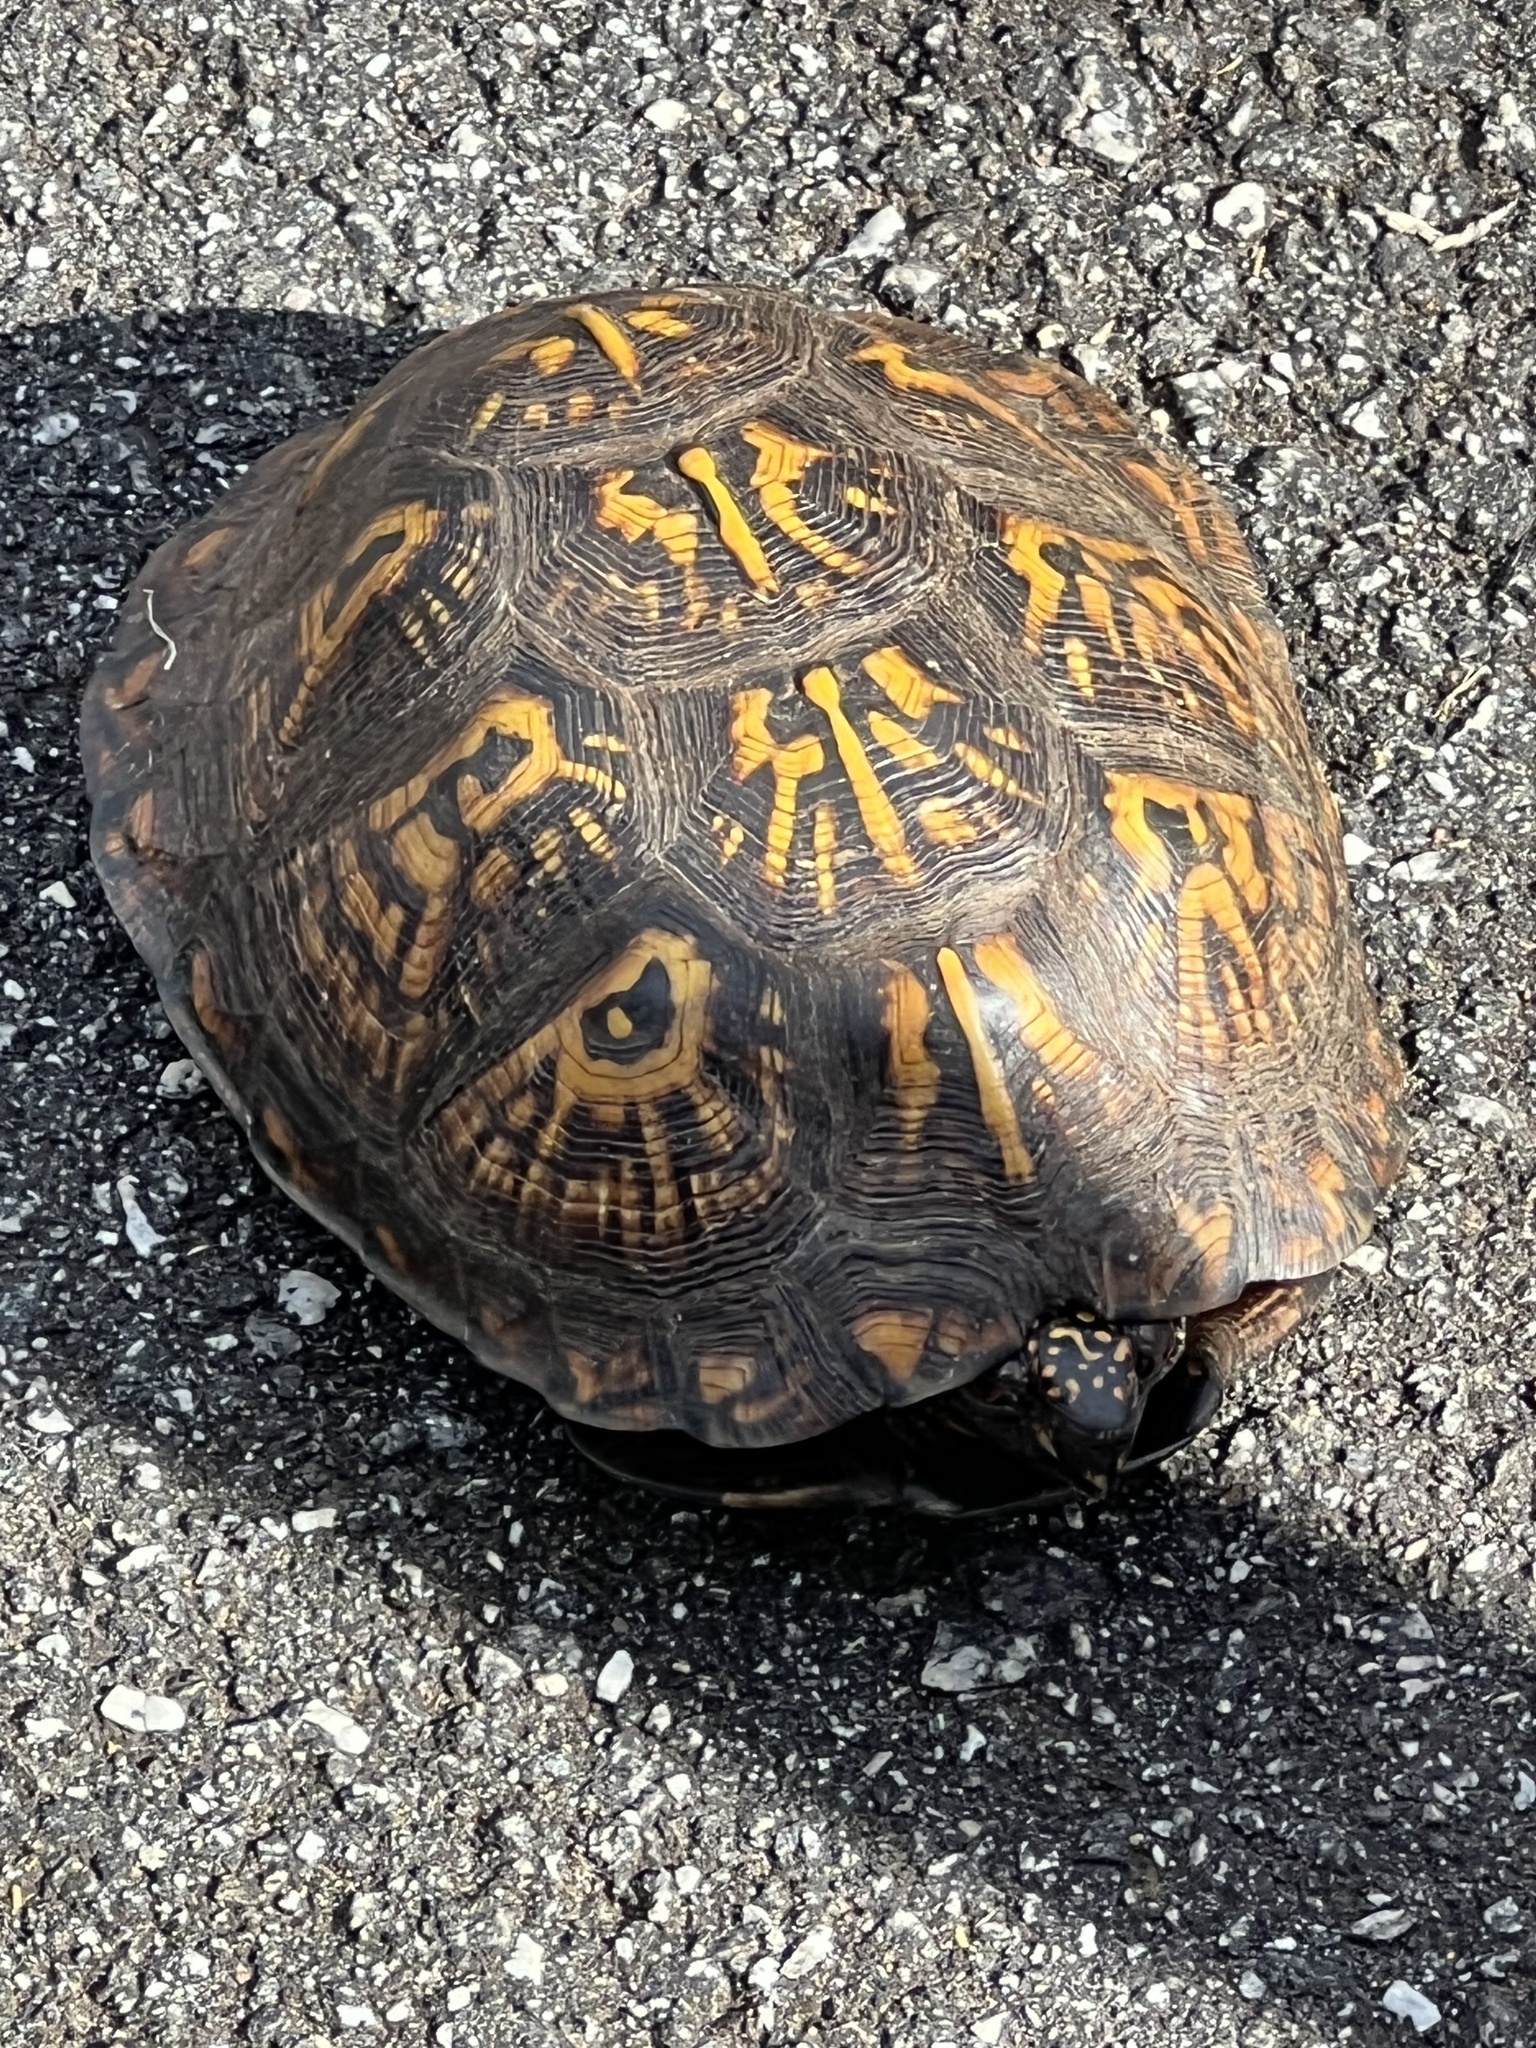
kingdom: Animalia
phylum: Chordata
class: Testudines
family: Emydidae
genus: Terrapene
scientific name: Terrapene carolina
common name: Common box turtle
